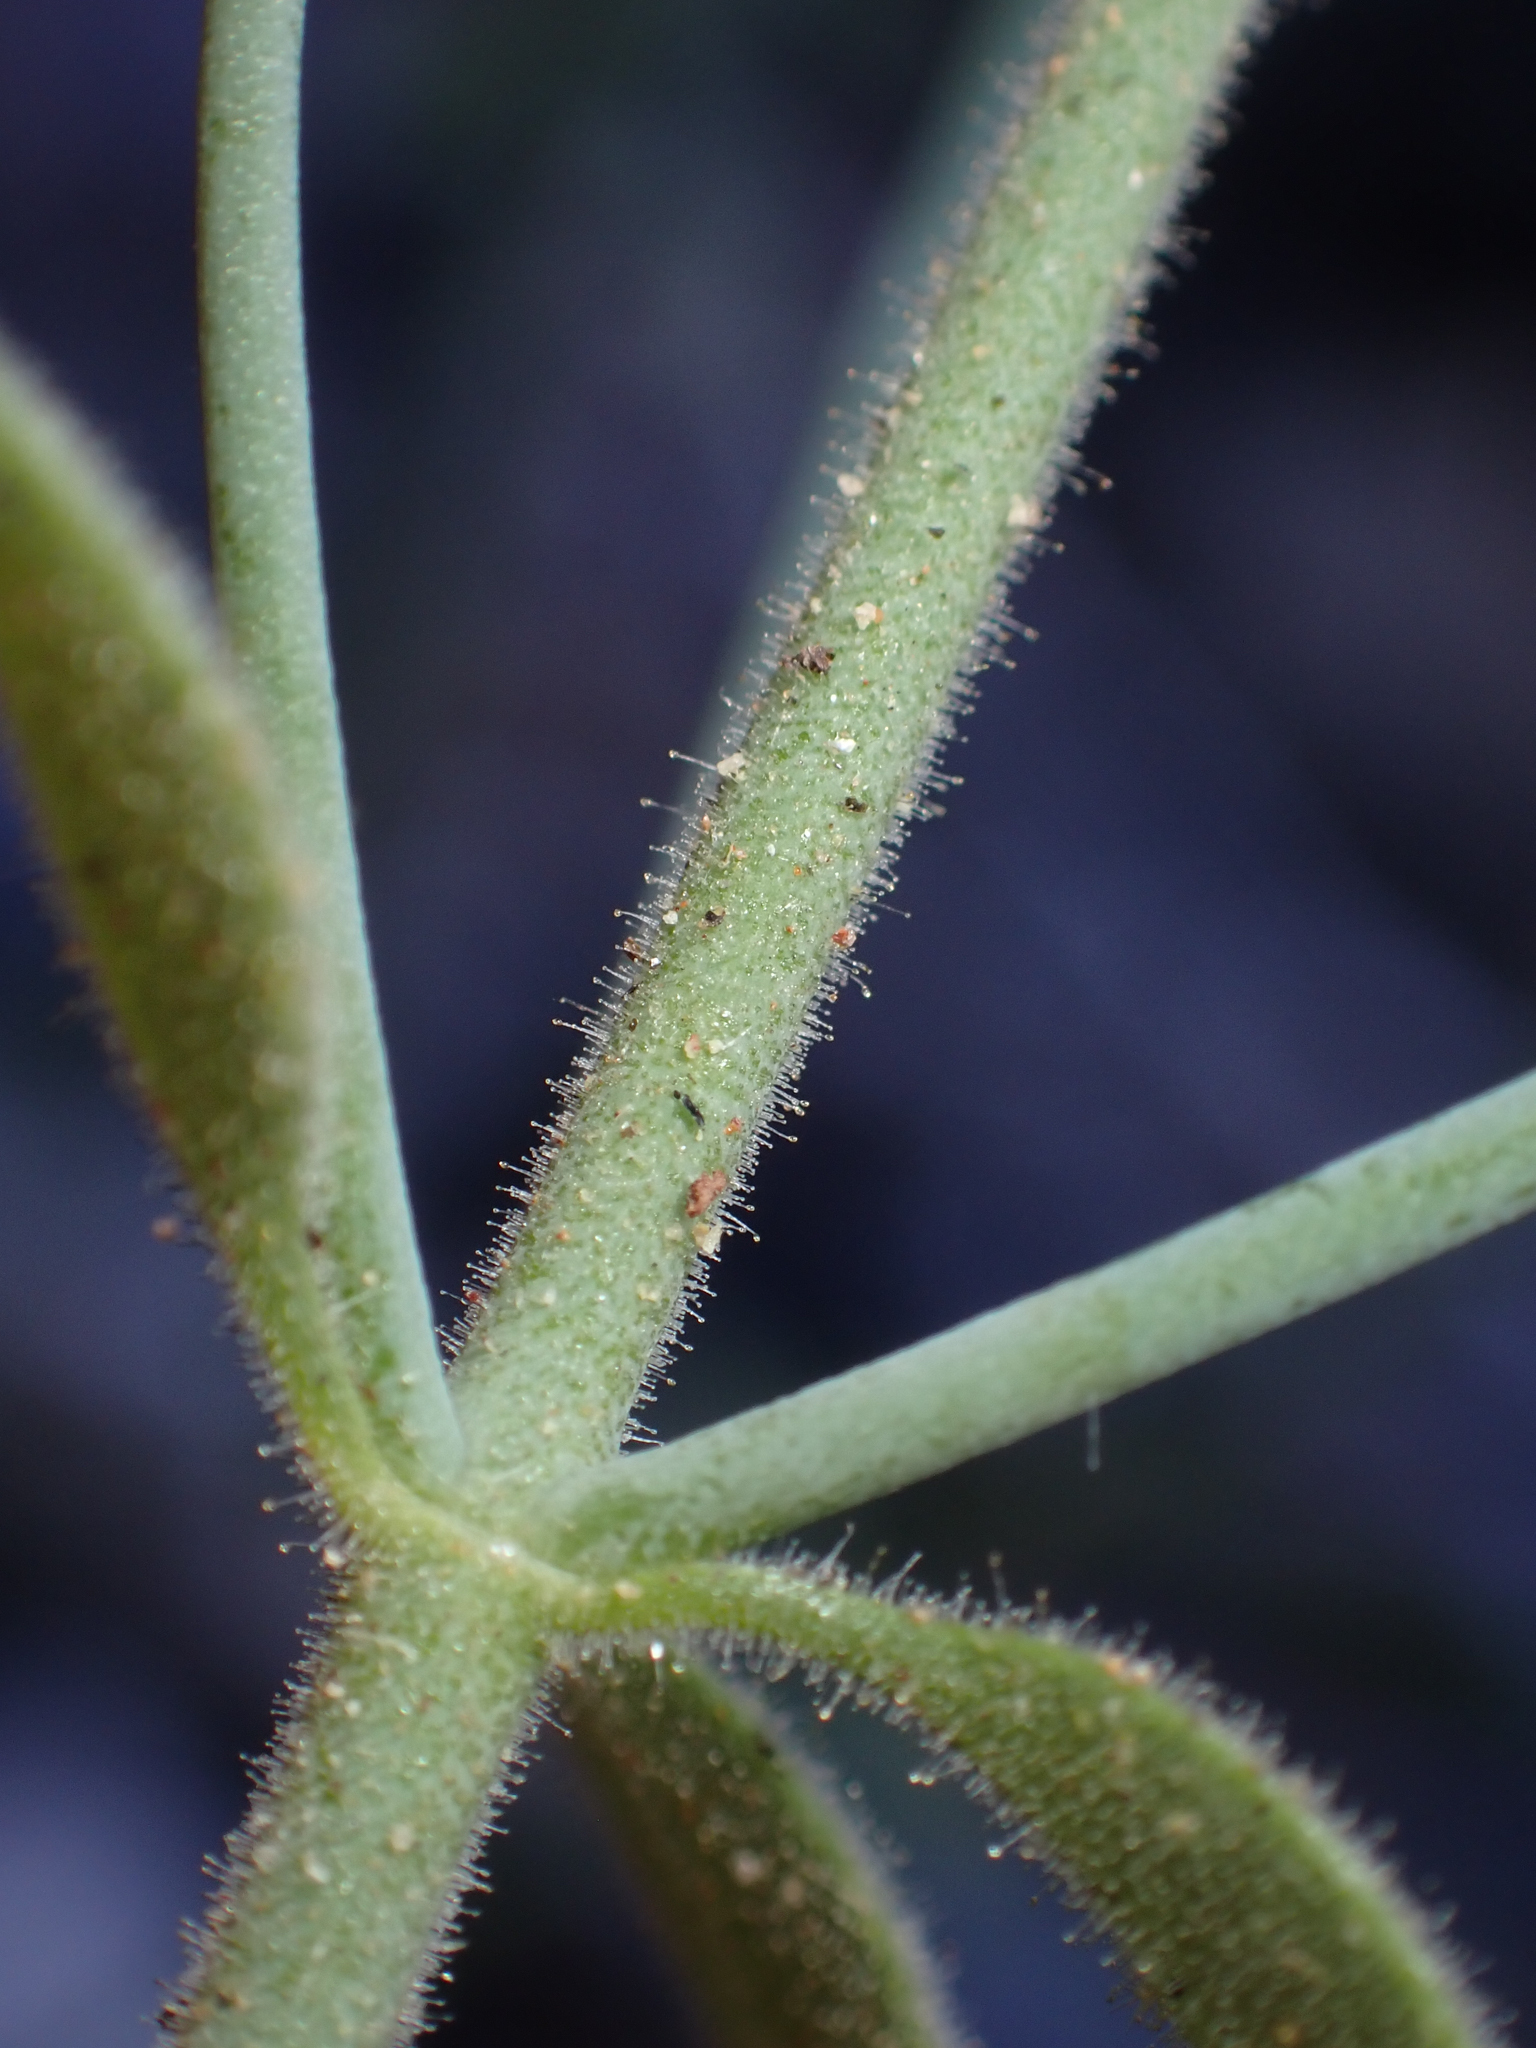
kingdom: Plantae
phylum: Tracheophyta
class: Magnoliopsida
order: Lamiales
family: Plantaginaceae
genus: Gambelia
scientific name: Gambelia juncea
